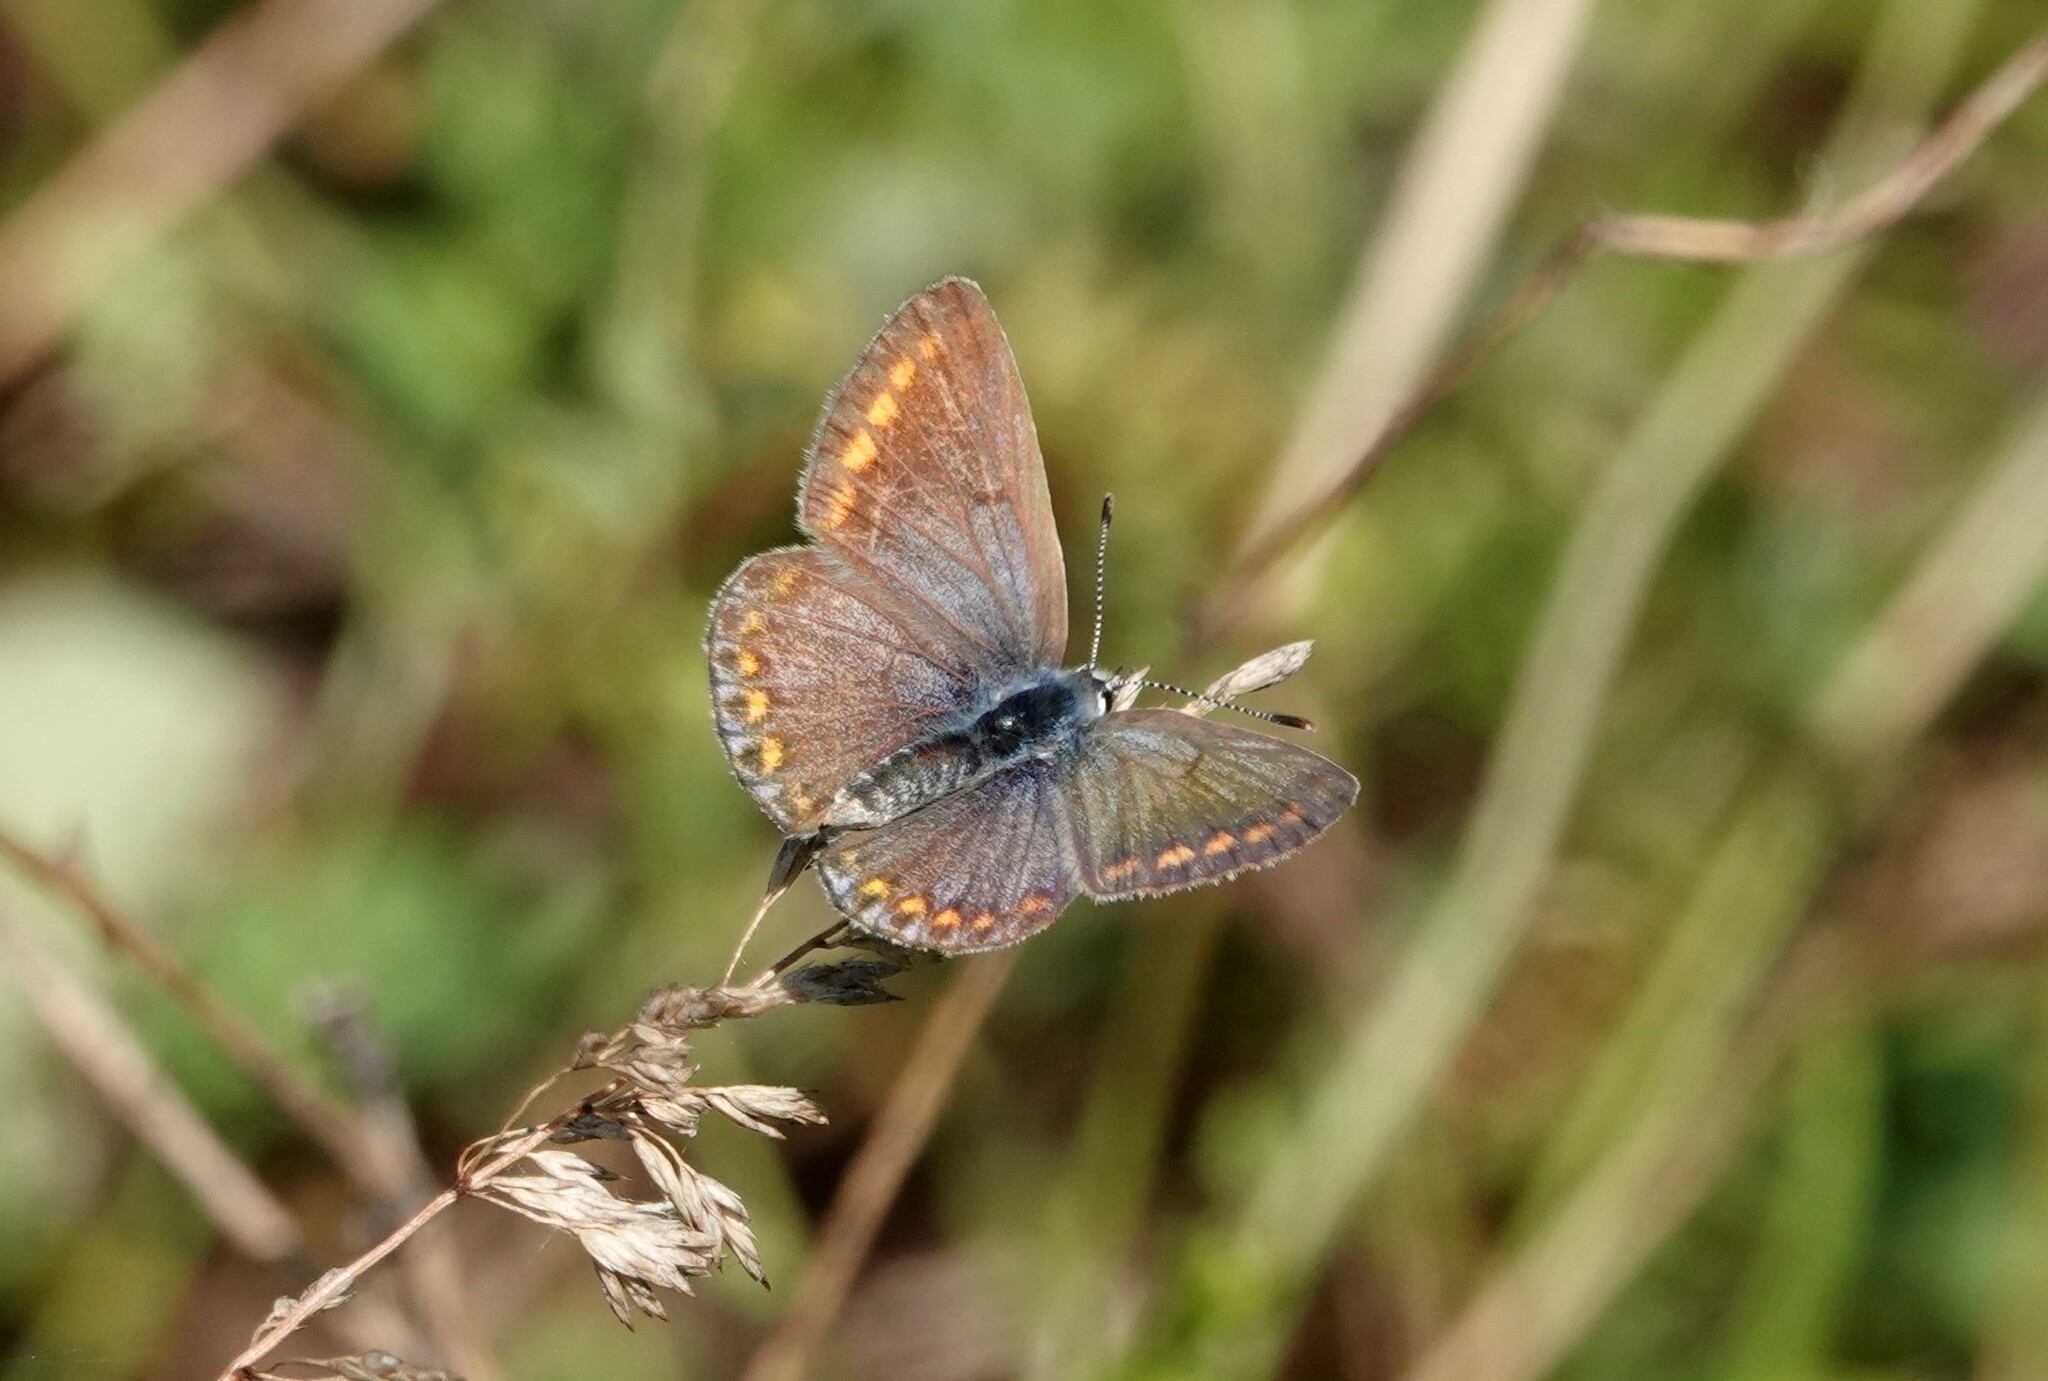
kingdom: Animalia
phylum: Arthropoda
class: Insecta
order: Lepidoptera
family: Lycaenidae
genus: Polyommatus
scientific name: Polyommatus icarus
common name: Common blue
